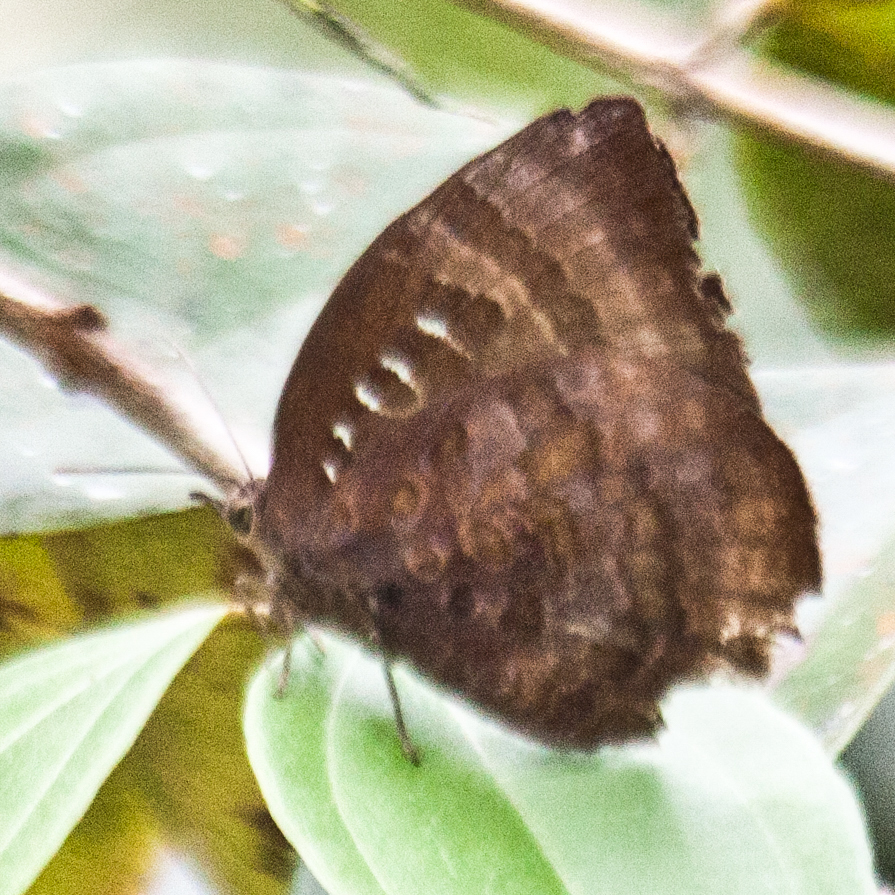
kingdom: Animalia
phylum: Arthropoda
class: Insecta
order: Lepidoptera
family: Lycaenidae
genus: Arhopala
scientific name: Arhopala centaurus
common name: Dull oak-blue
